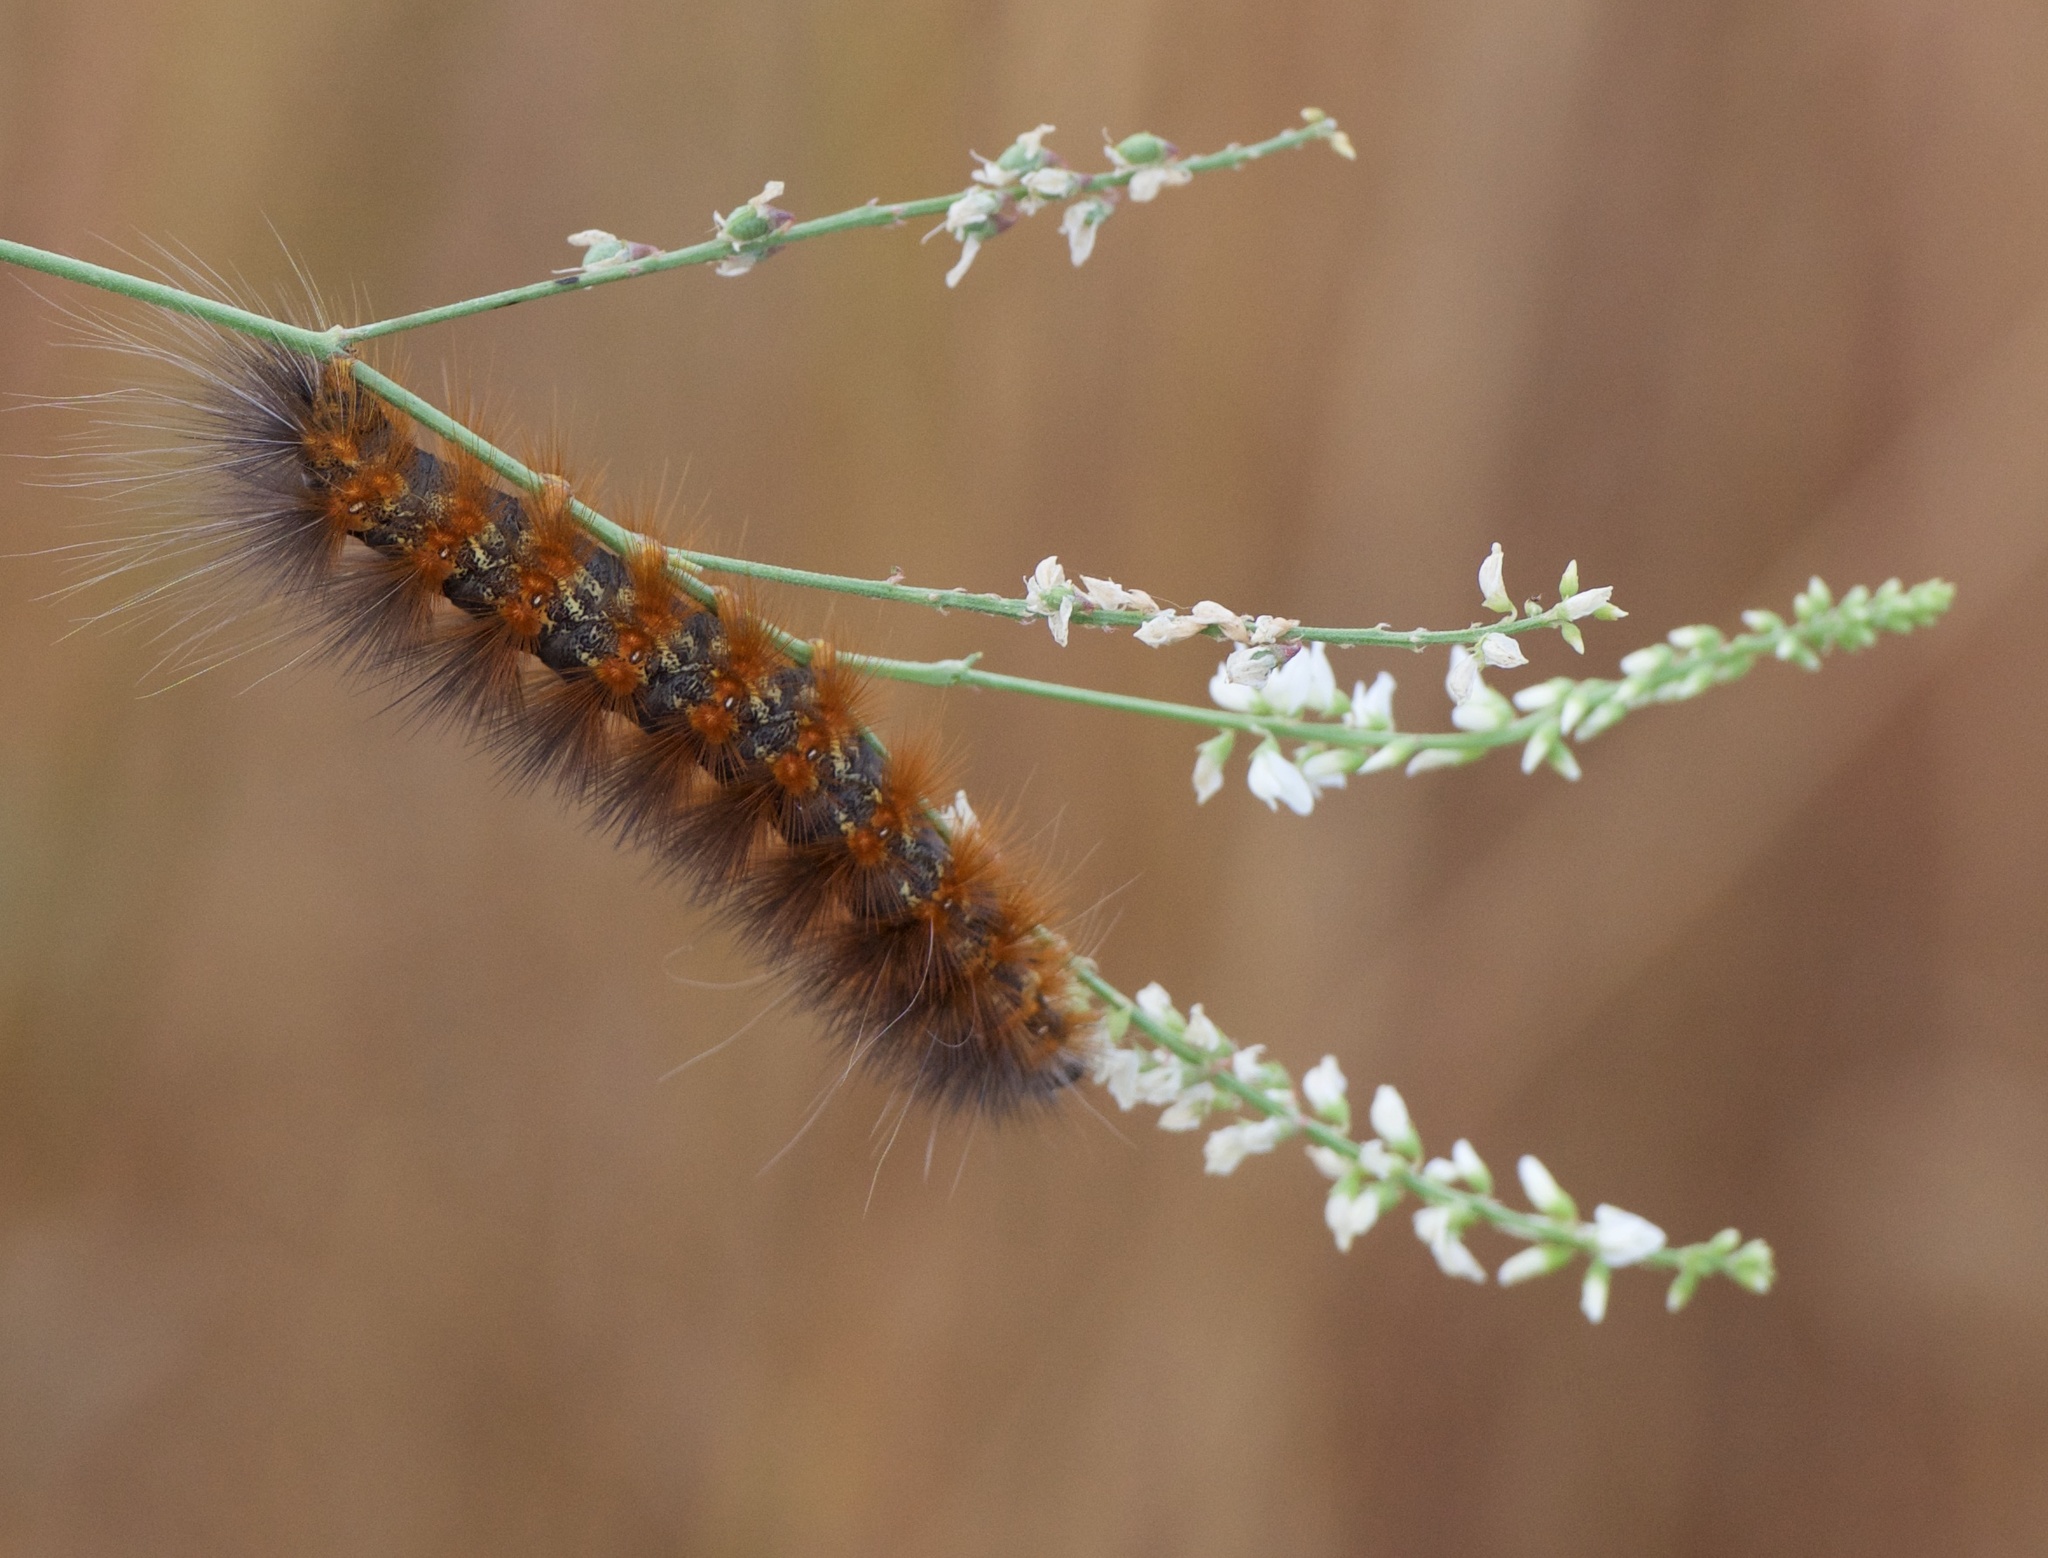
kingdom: Animalia
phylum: Arthropoda
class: Insecta
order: Lepidoptera
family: Erebidae
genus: Estigmene
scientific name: Estigmene acrea
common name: Salt marsh moth
